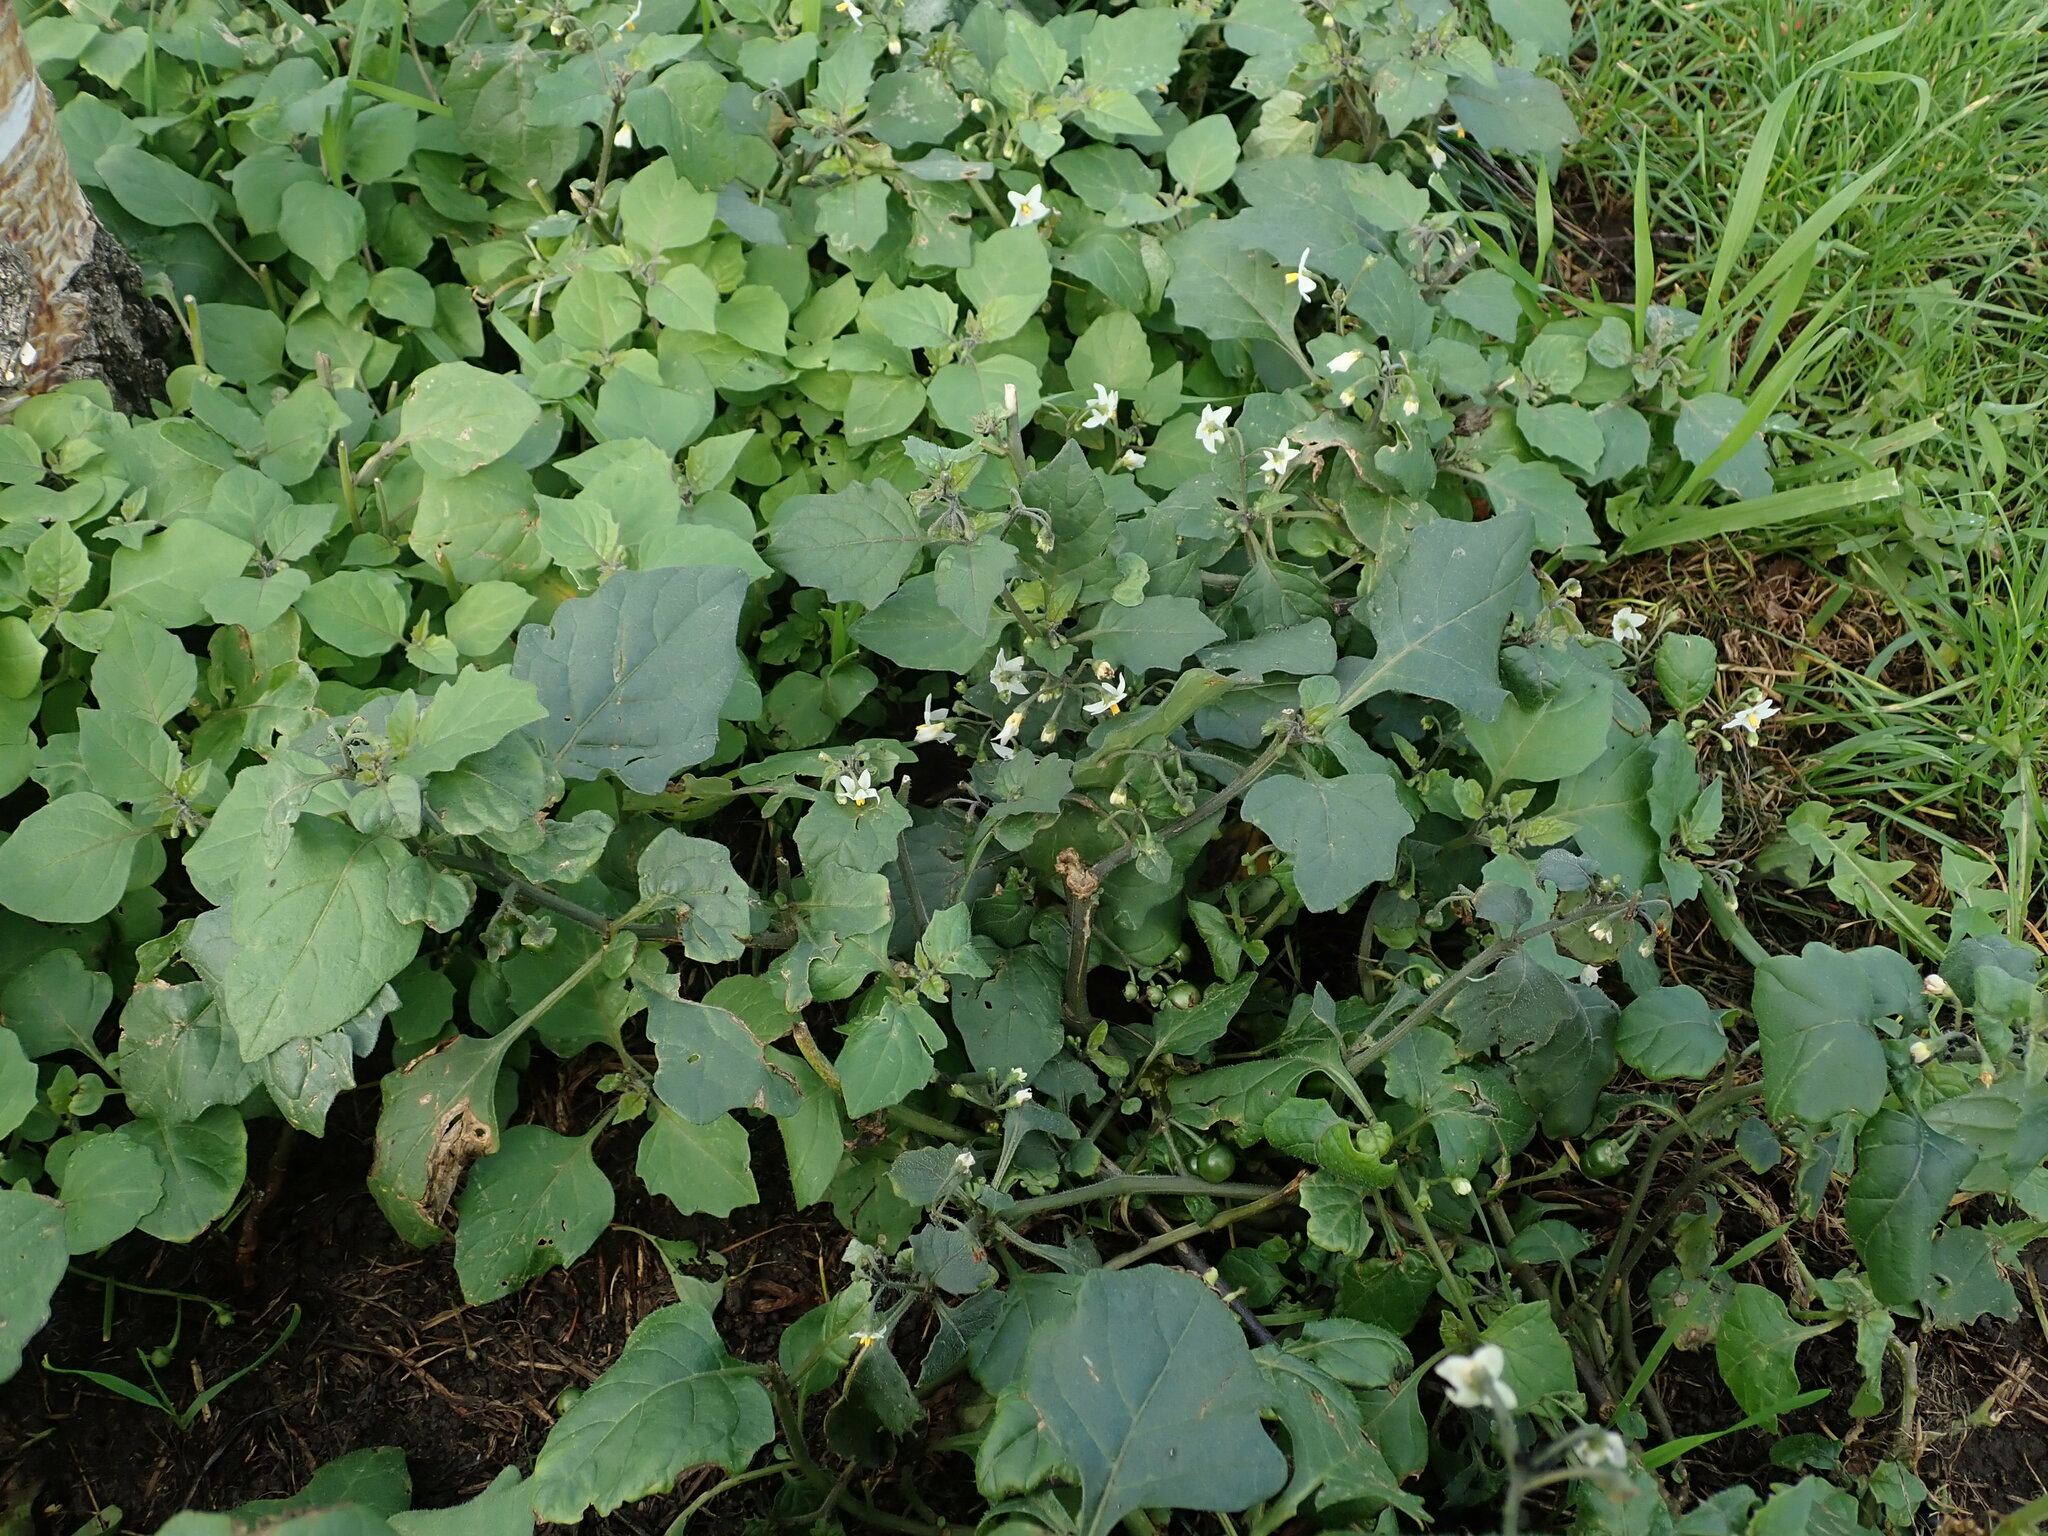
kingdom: Plantae
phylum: Tracheophyta
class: Magnoliopsida
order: Solanales
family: Solanaceae
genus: Solanum
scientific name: Solanum nigrum
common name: Black nightshade
